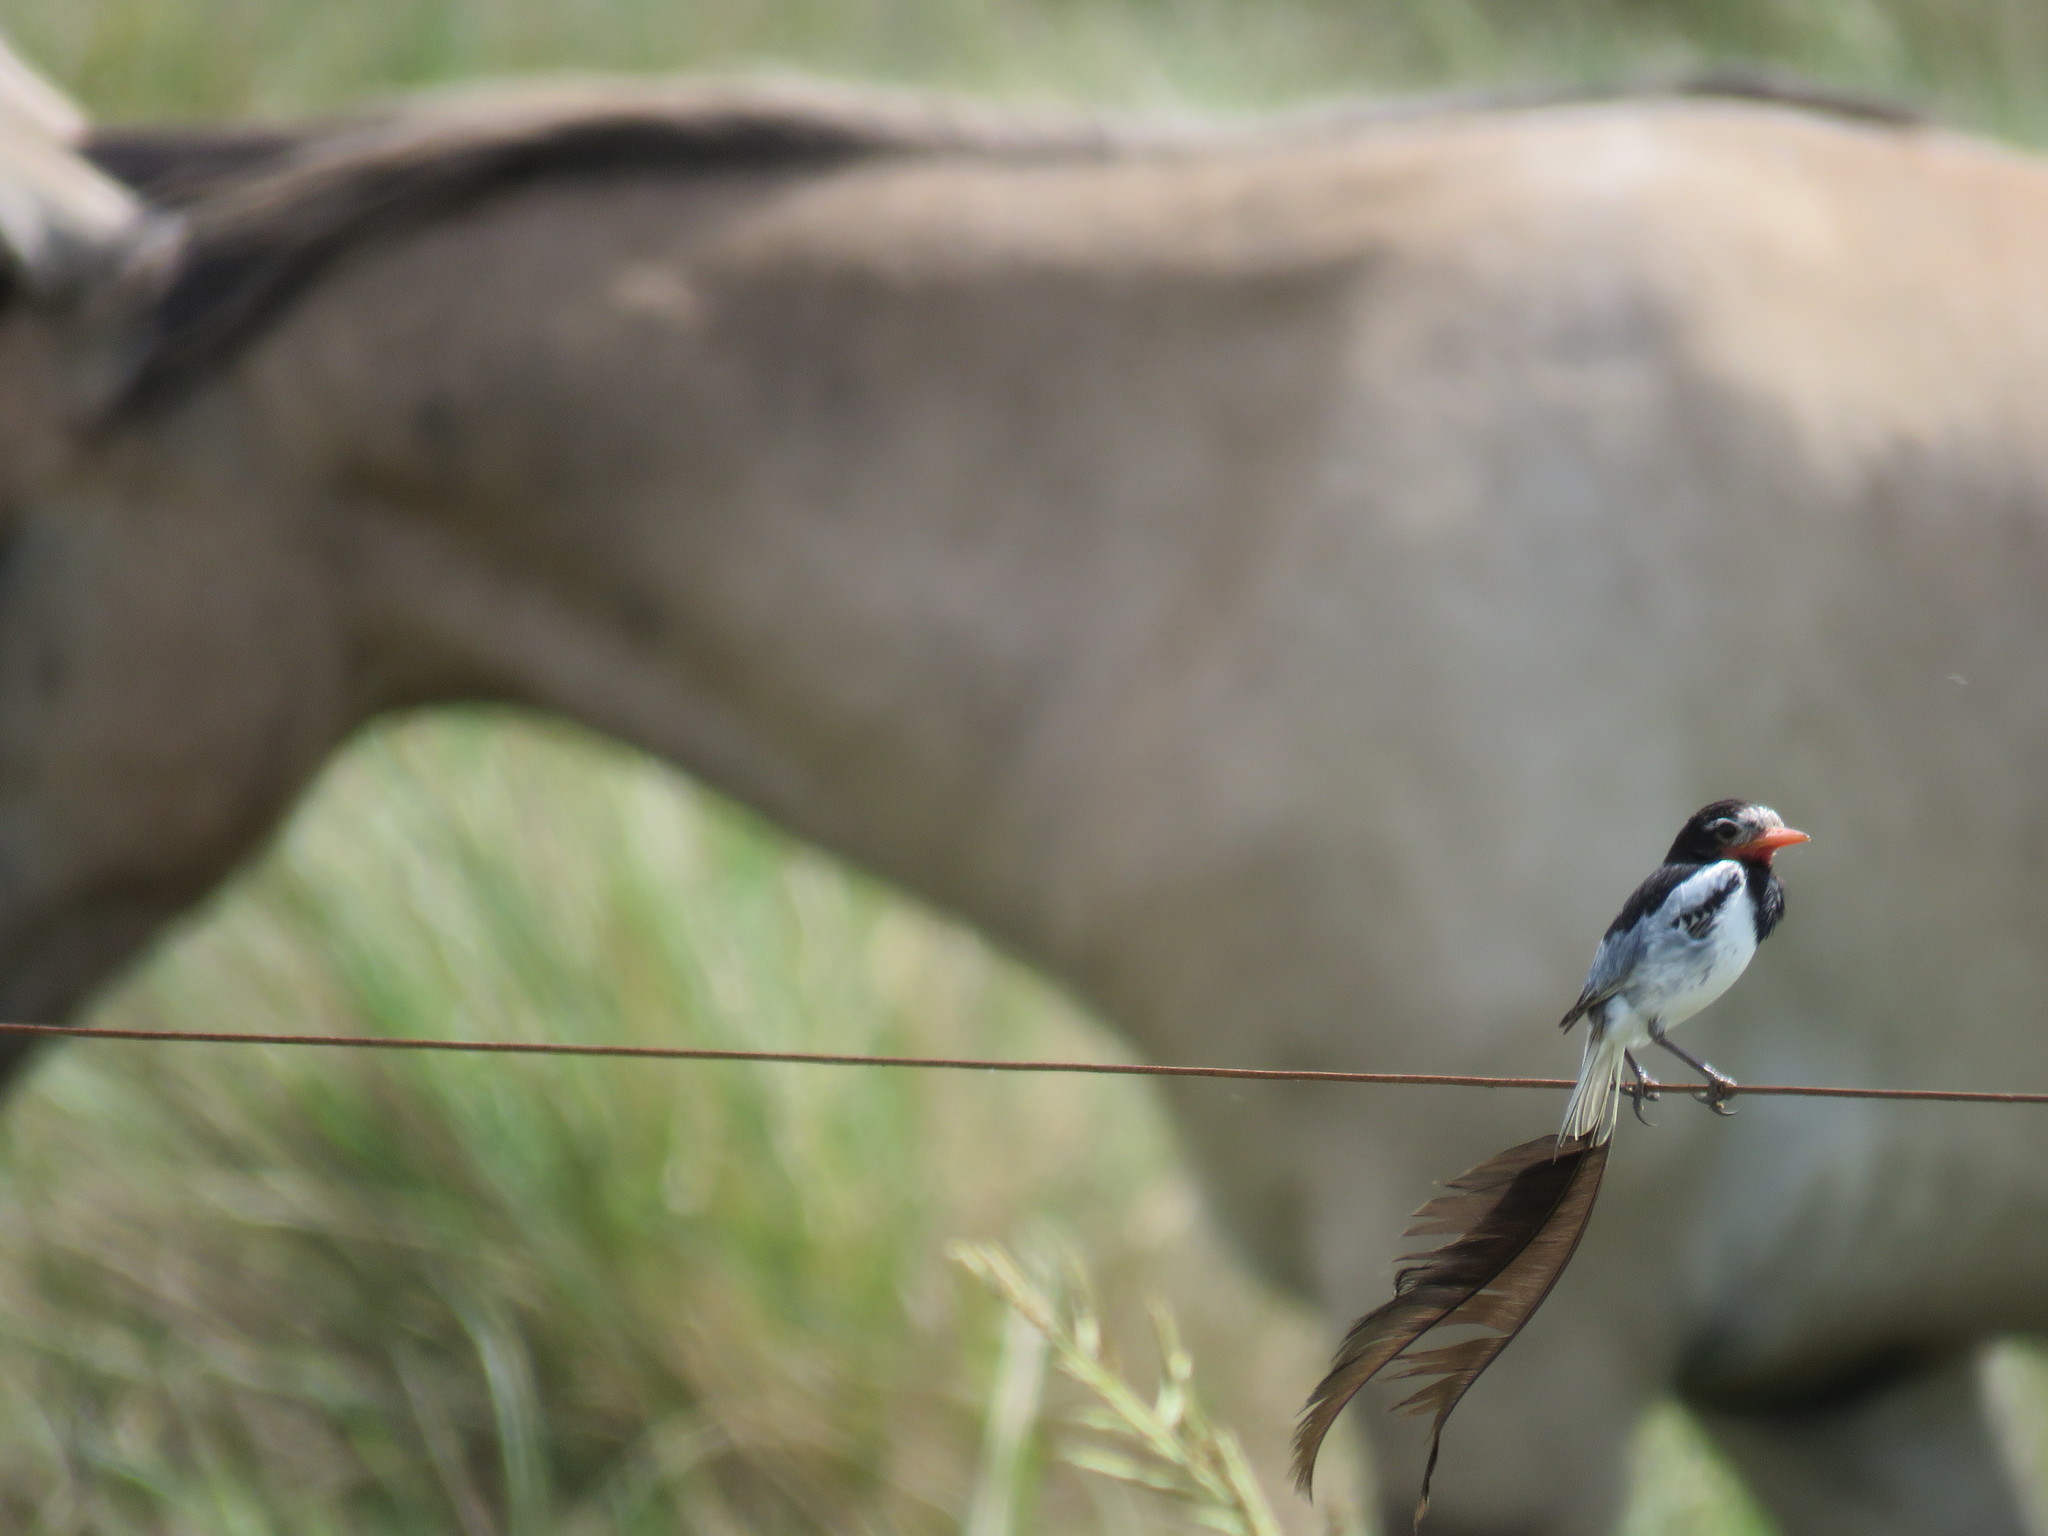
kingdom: Animalia
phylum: Chordata
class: Aves
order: Passeriformes
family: Tyrannidae
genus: Alectrurus
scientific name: Alectrurus risora
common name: Strange-tailed tyrant
